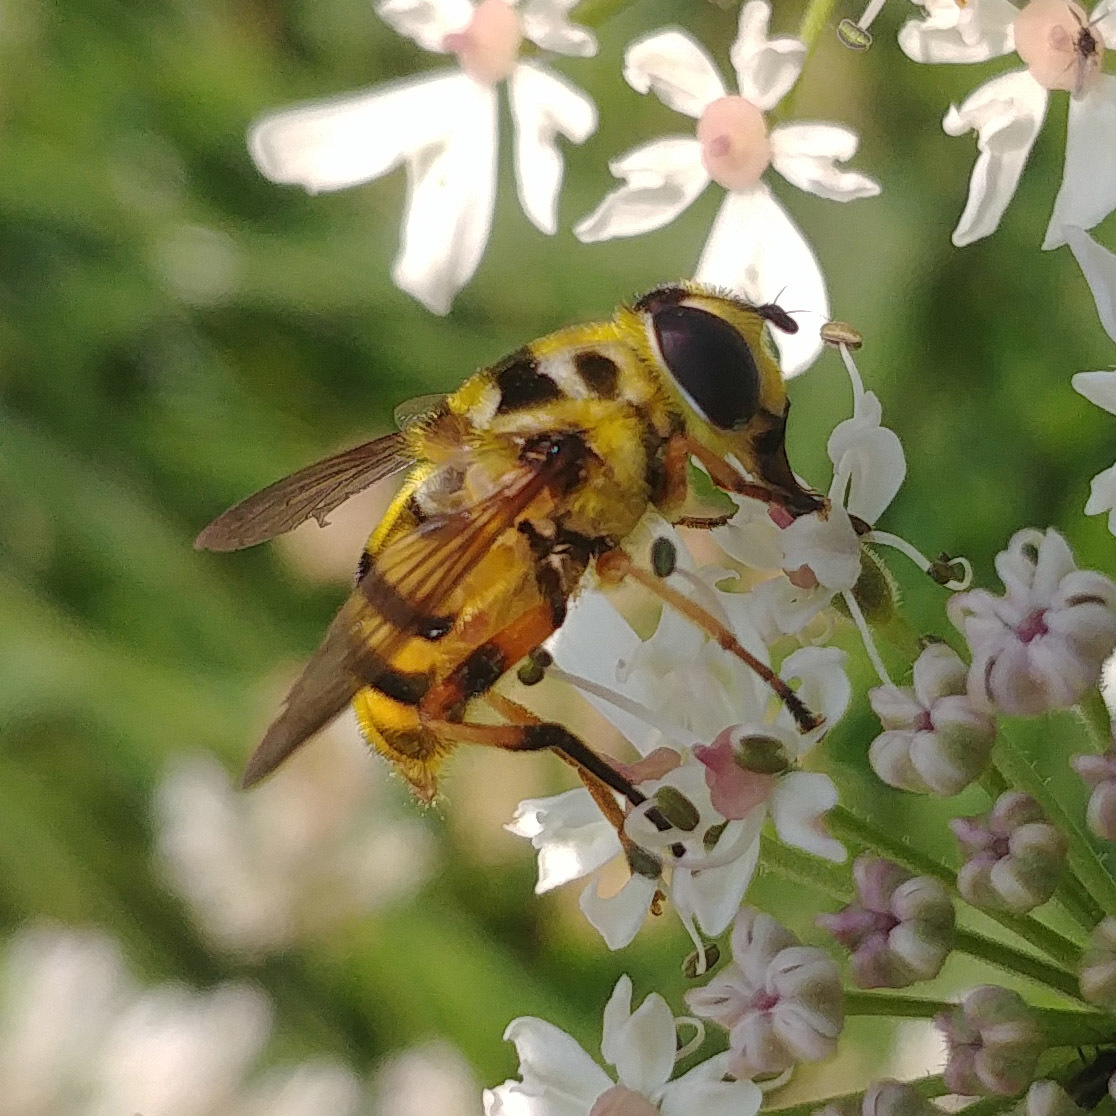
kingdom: Animalia
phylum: Arthropoda
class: Insecta
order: Diptera
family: Syrphidae
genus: Myathropa
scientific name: Myathropa florea
